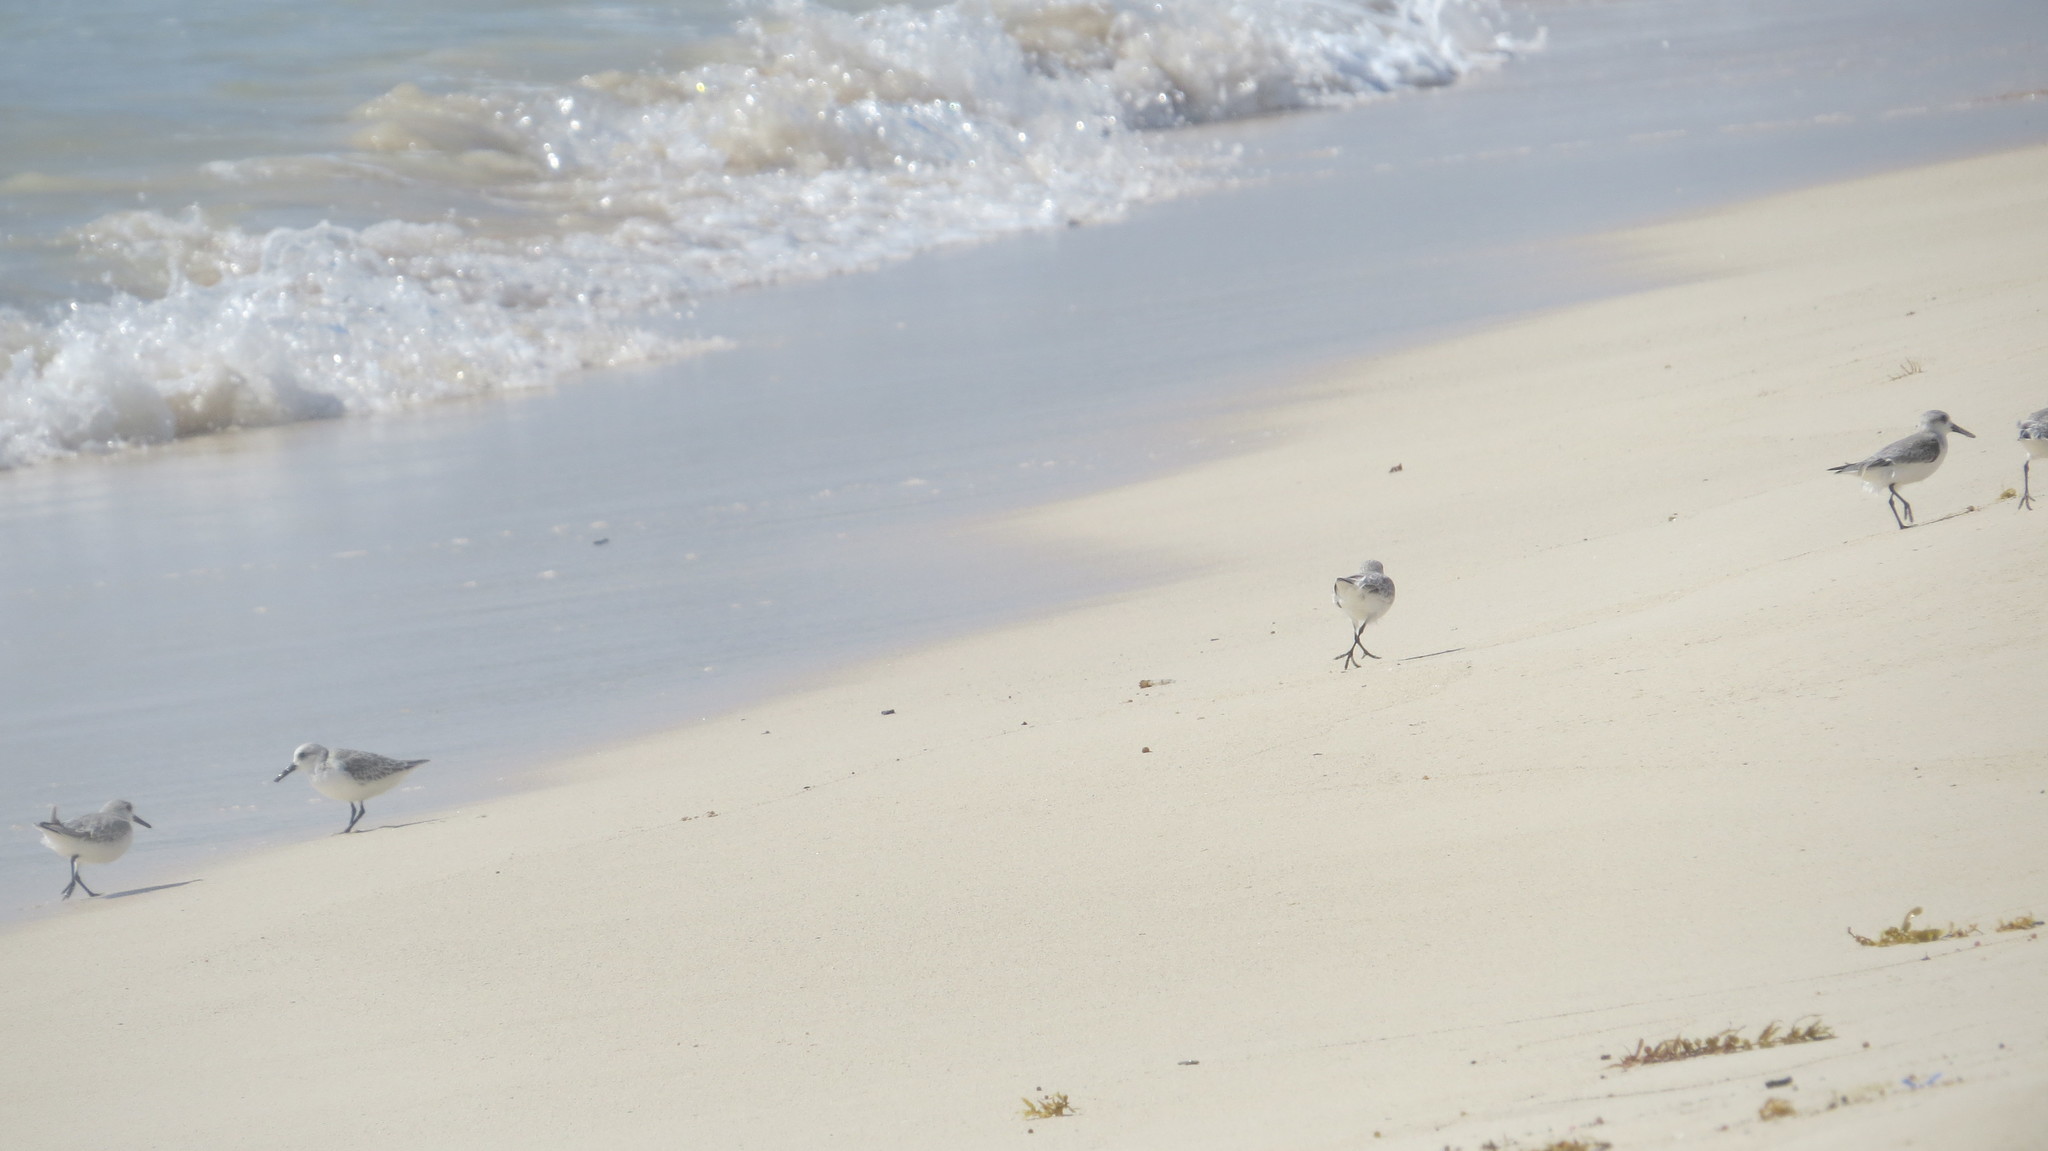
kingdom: Animalia
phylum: Chordata
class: Aves
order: Charadriiformes
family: Scolopacidae
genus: Calidris
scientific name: Calidris alba
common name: Sanderling
